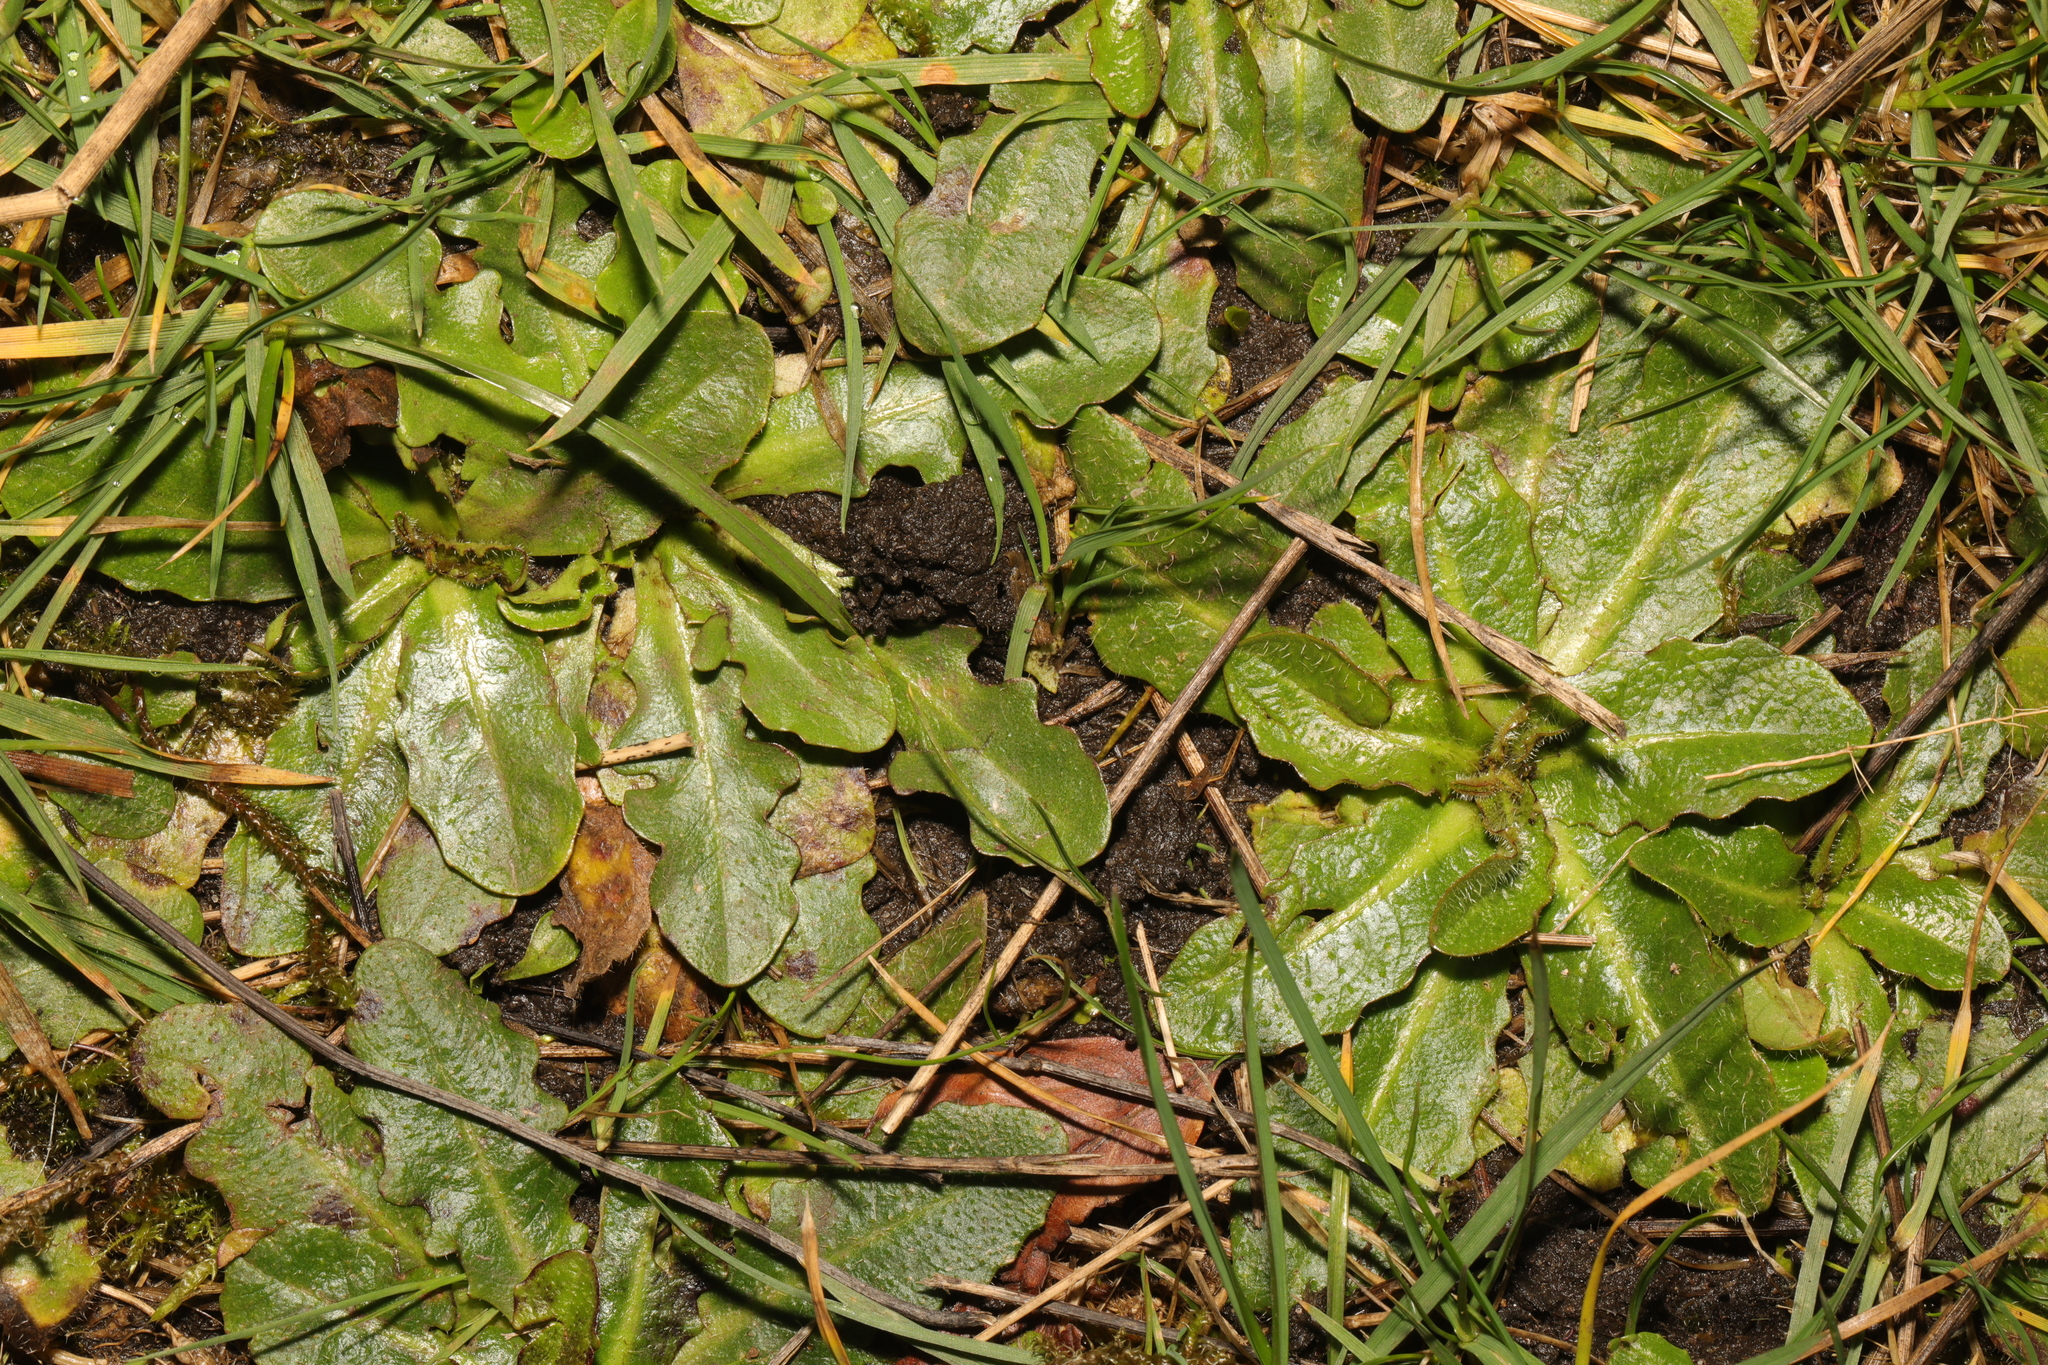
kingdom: Plantae
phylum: Tracheophyta
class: Magnoliopsida
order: Asterales
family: Asteraceae
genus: Hypochaeris
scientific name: Hypochaeris radicata
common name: Flatweed
